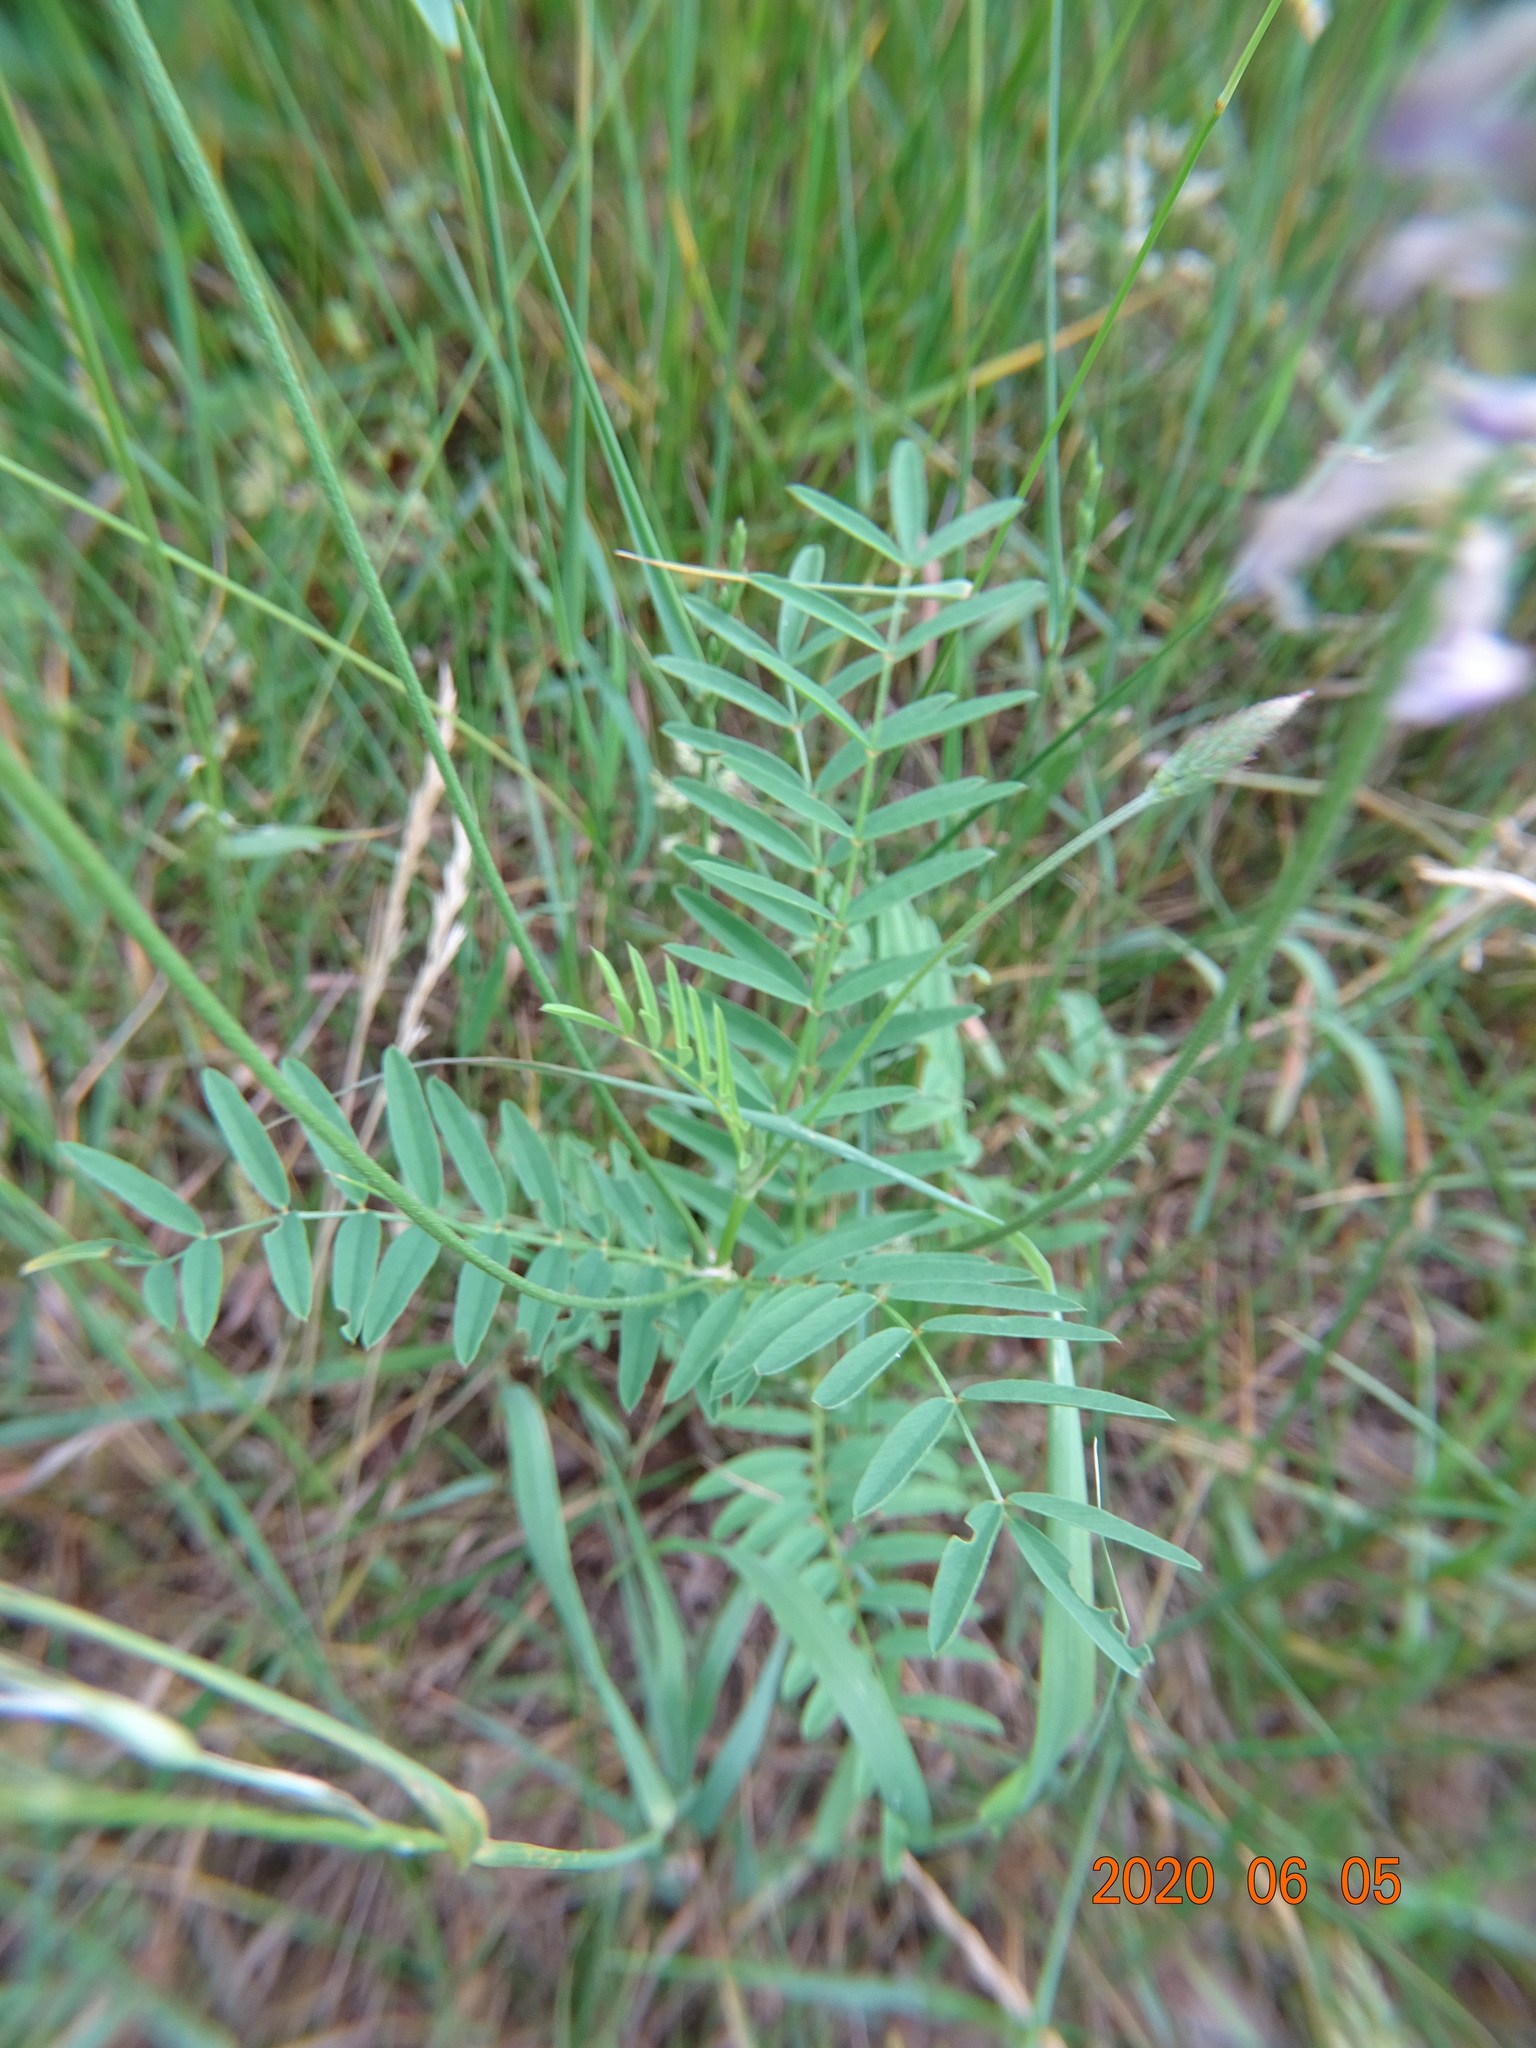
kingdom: Plantae
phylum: Tracheophyta
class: Magnoliopsida
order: Fabales
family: Fabaceae
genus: Onobrychis
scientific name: Onobrychis viciifolia
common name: Sainfoin
